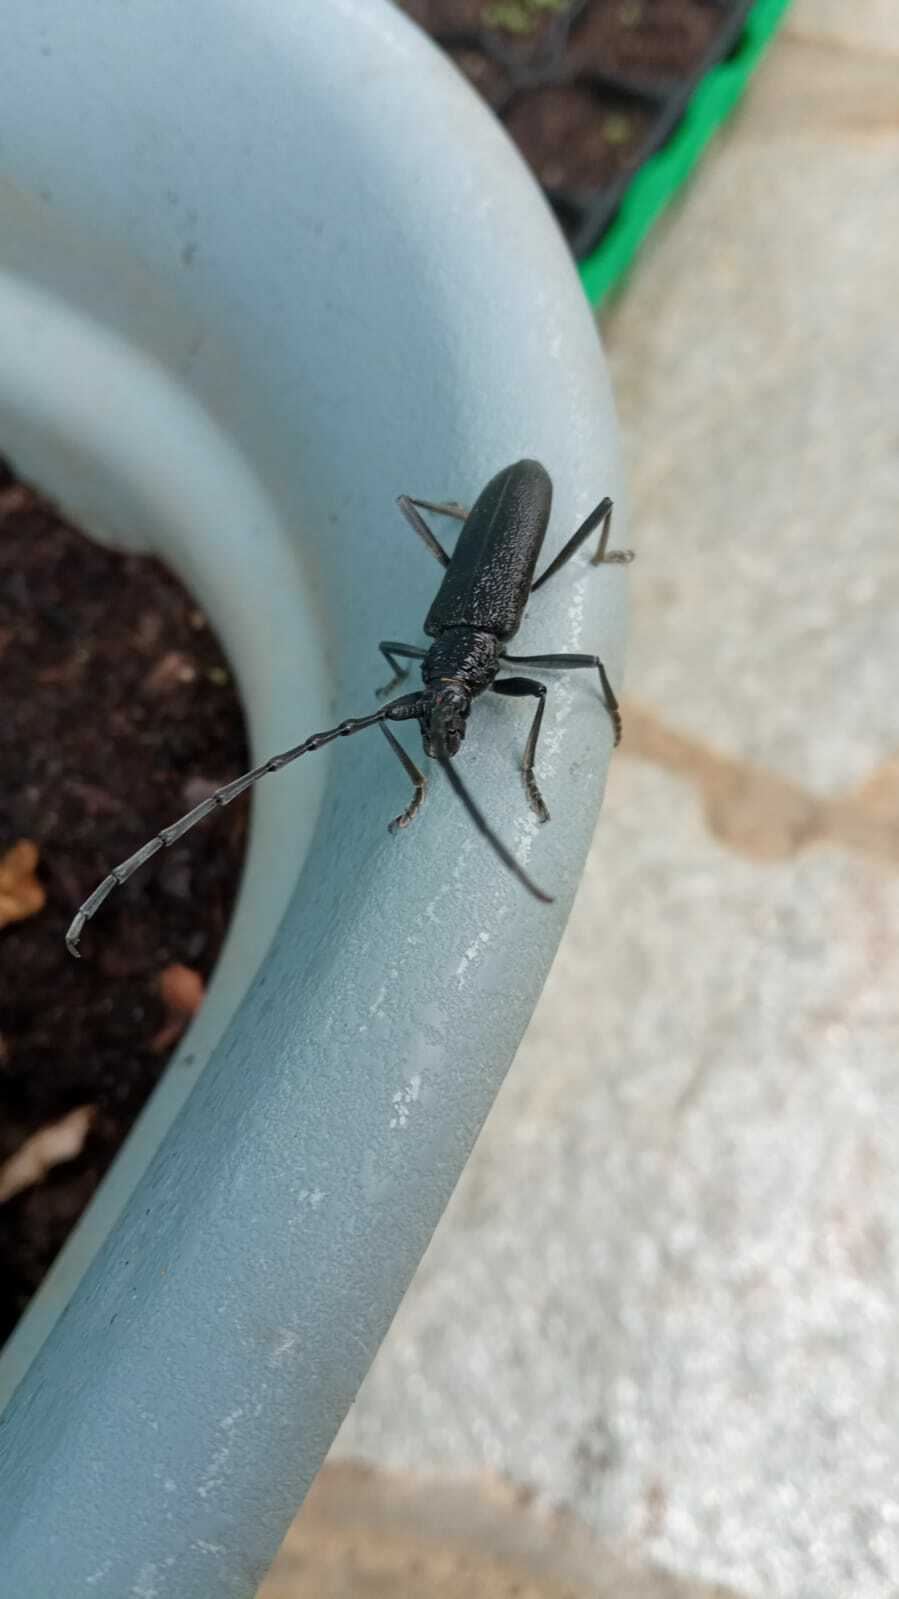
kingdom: Animalia
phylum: Arthropoda
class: Insecta
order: Coleoptera
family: Cerambycidae
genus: Cerambyx
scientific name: Cerambyx scopolii
